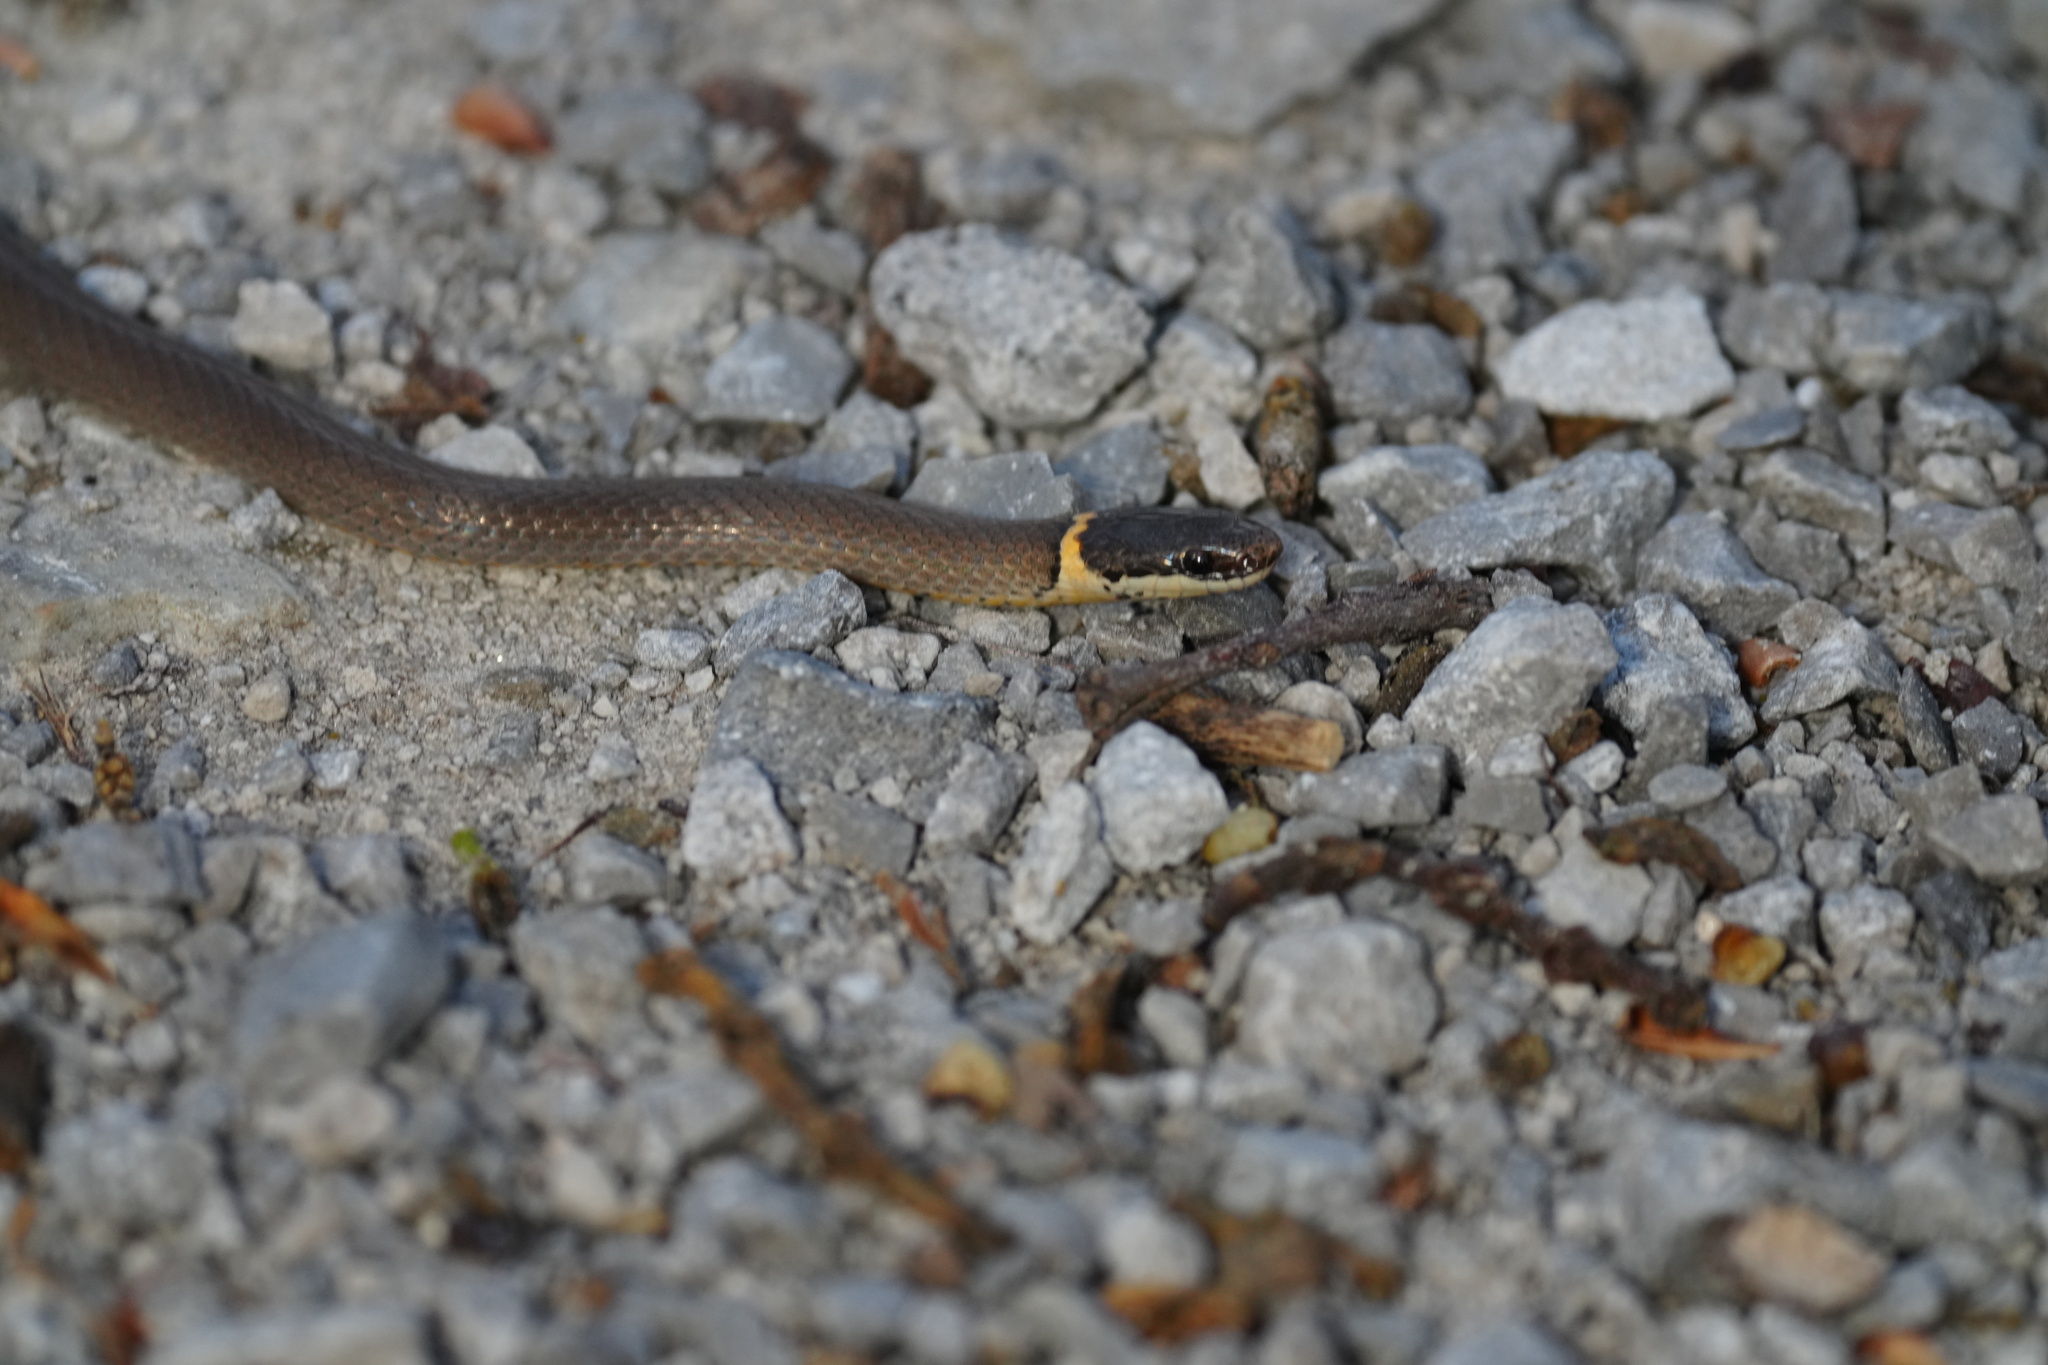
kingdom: Animalia
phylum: Chordata
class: Squamata
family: Colubridae
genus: Diadophis
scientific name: Diadophis punctatus
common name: Ringneck snake
